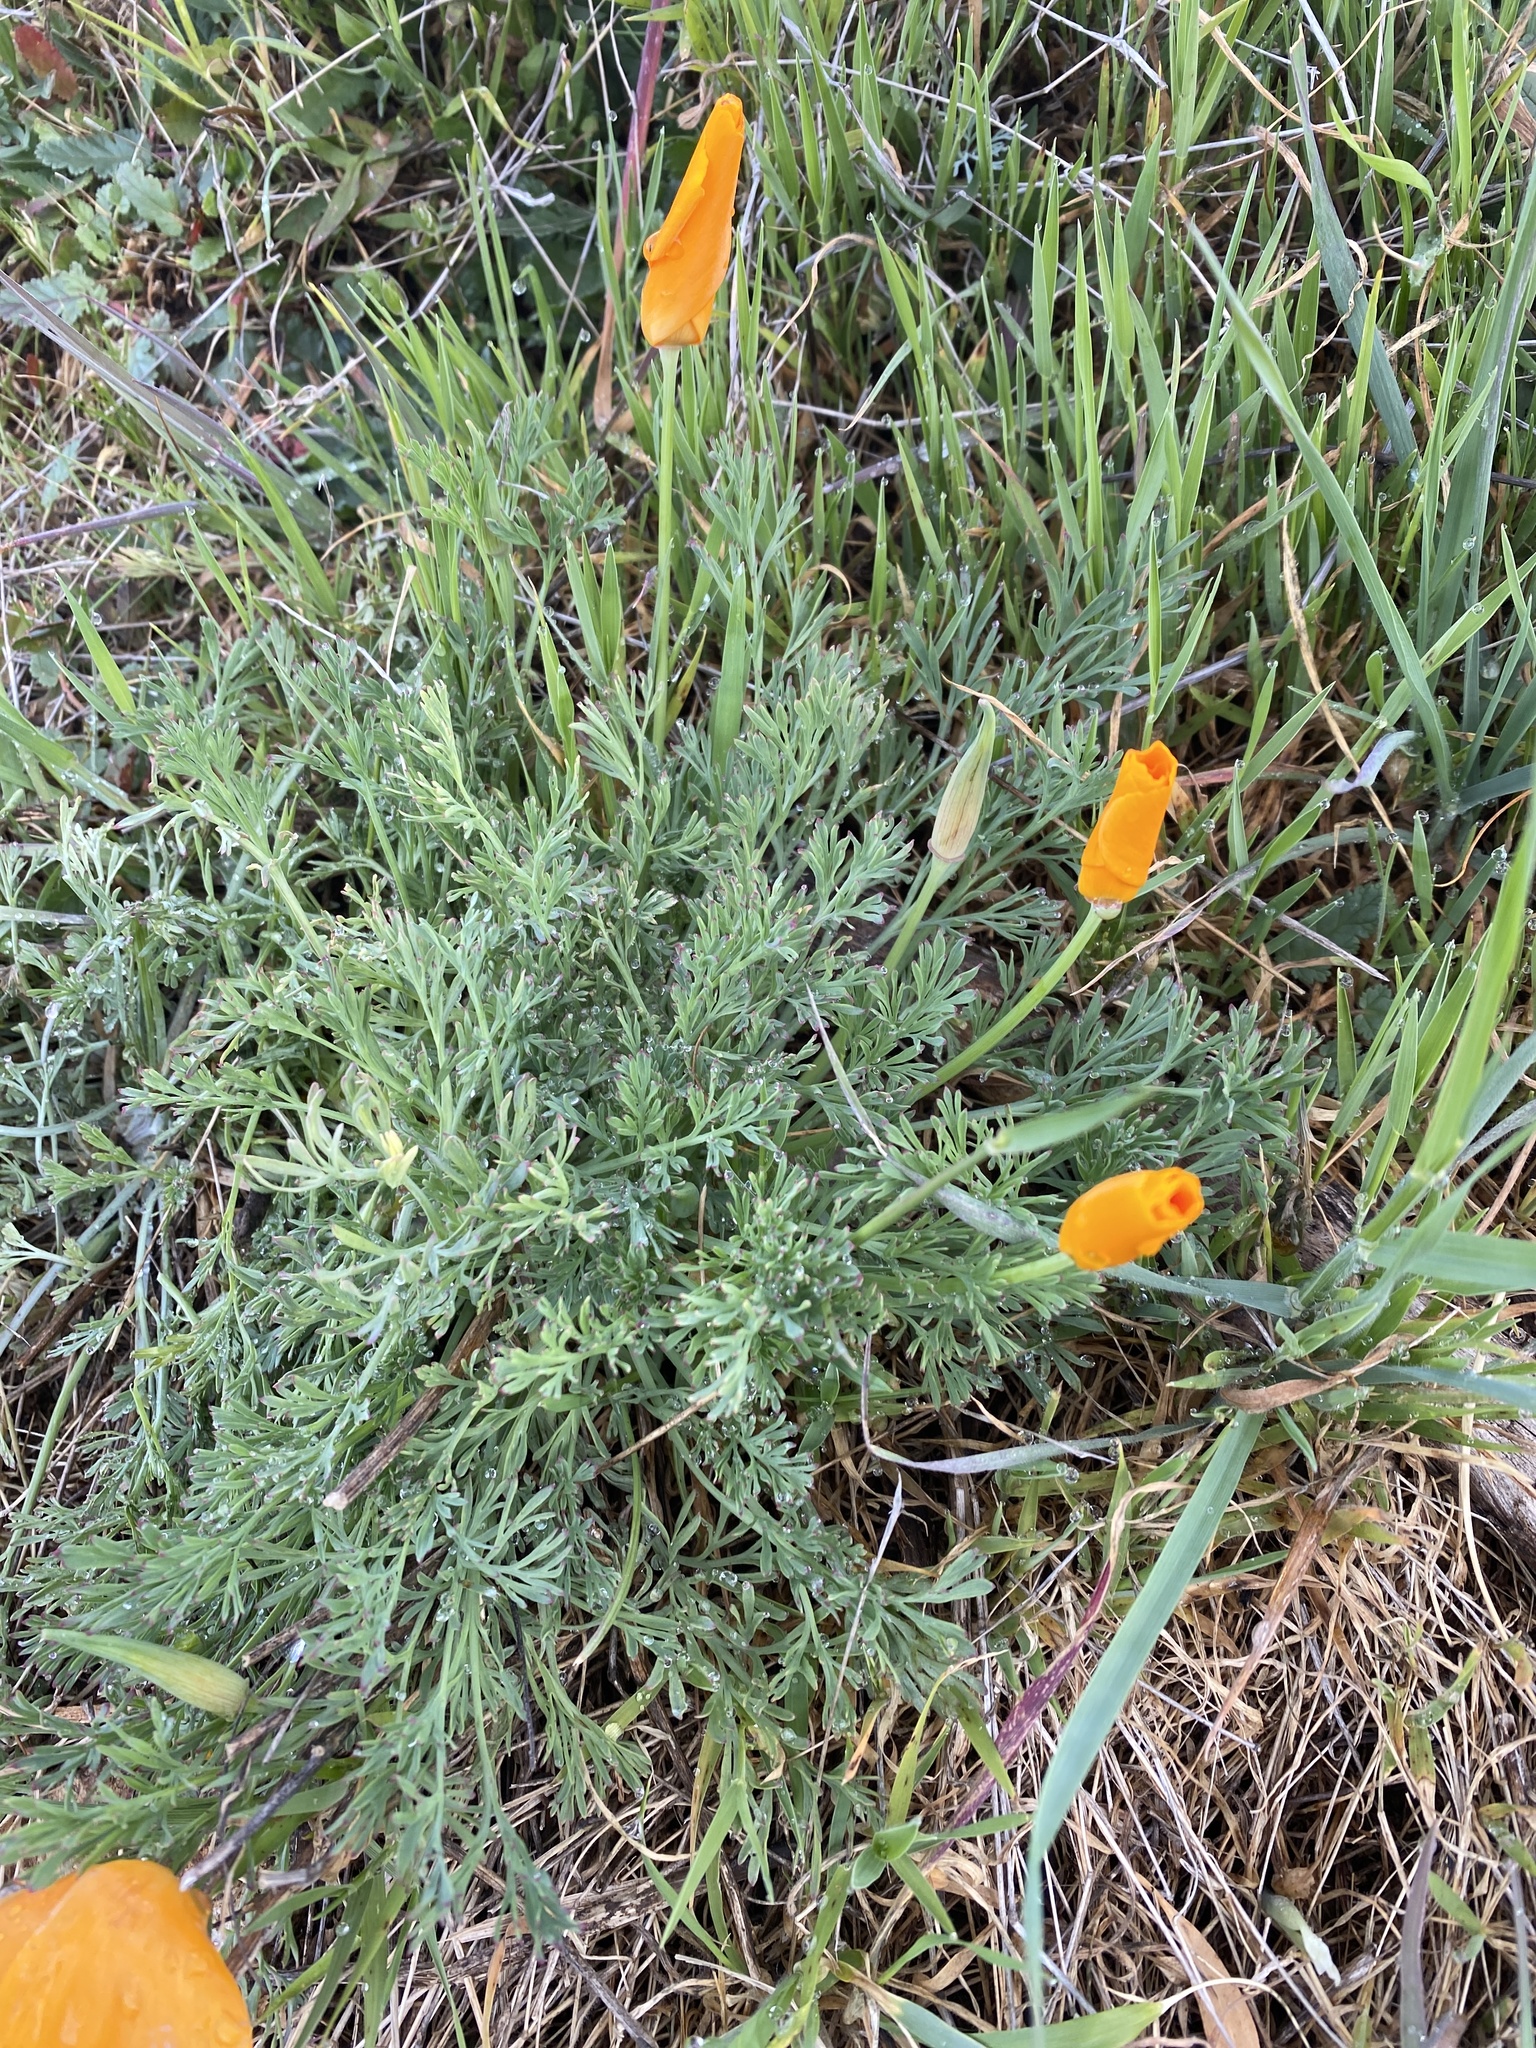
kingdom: Plantae
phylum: Tracheophyta
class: Magnoliopsida
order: Ranunculales
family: Papaveraceae
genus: Eschscholzia
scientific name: Eschscholzia californica
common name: California poppy
